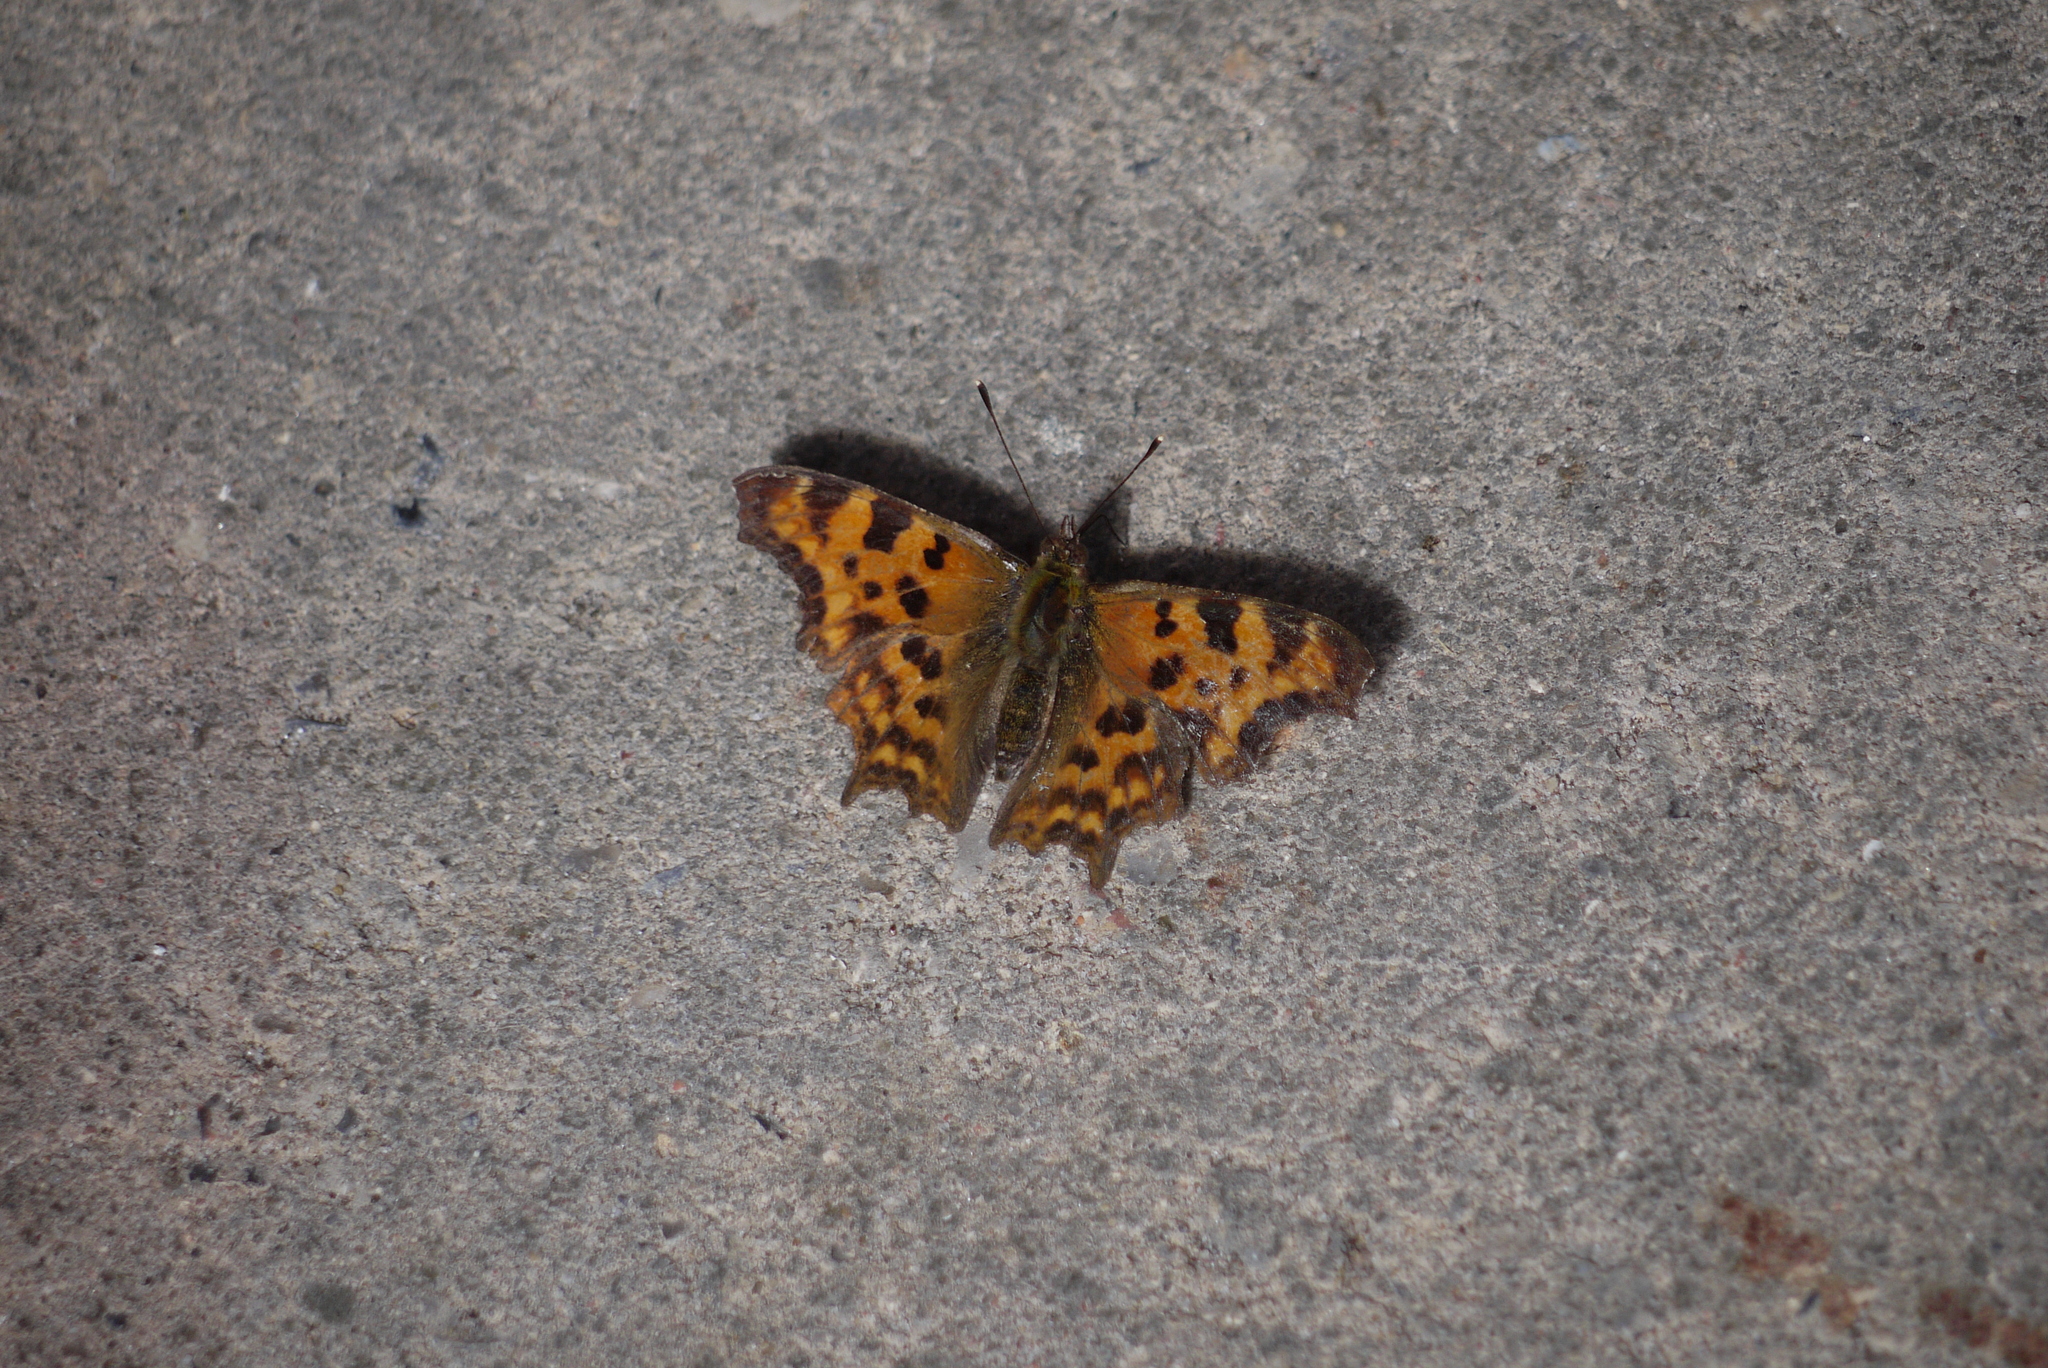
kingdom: Animalia
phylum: Arthropoda
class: Insecta
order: Lepidoptera
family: Nymphalidae
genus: Polygonia
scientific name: Polygonia c-album
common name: Comma
